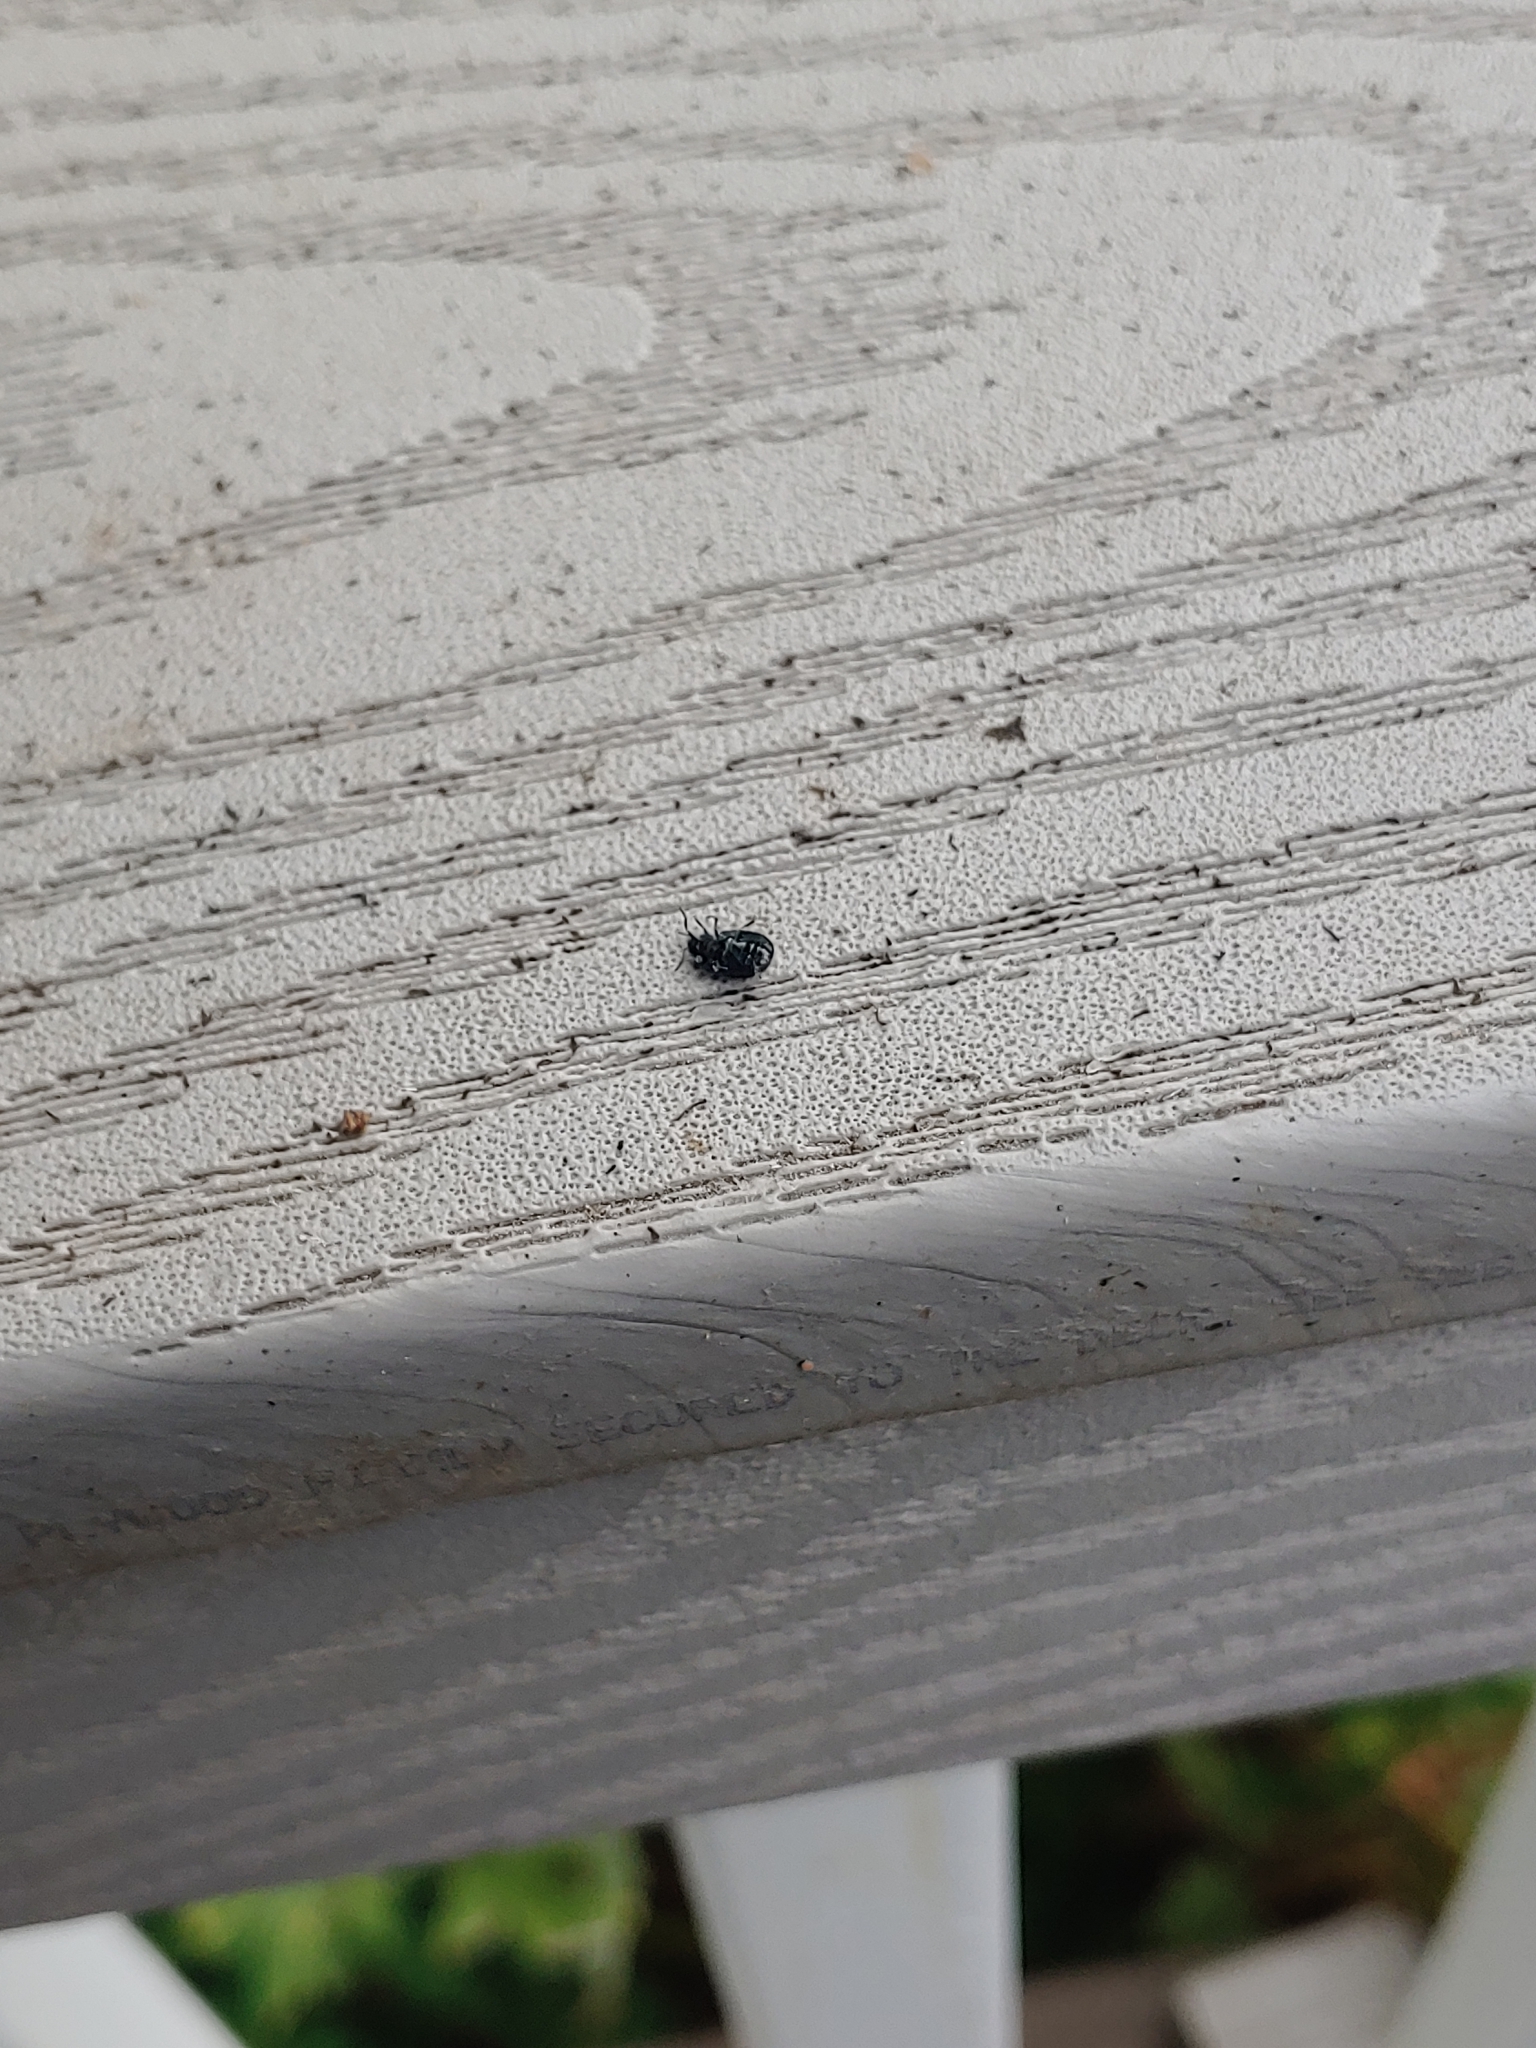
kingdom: Animalia
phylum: Arthropoda
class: Insecta
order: Coleoptera
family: Chrysomelidae
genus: Plagiodera
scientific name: Plagiodera versicolora
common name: Imported willow leaf beetle
